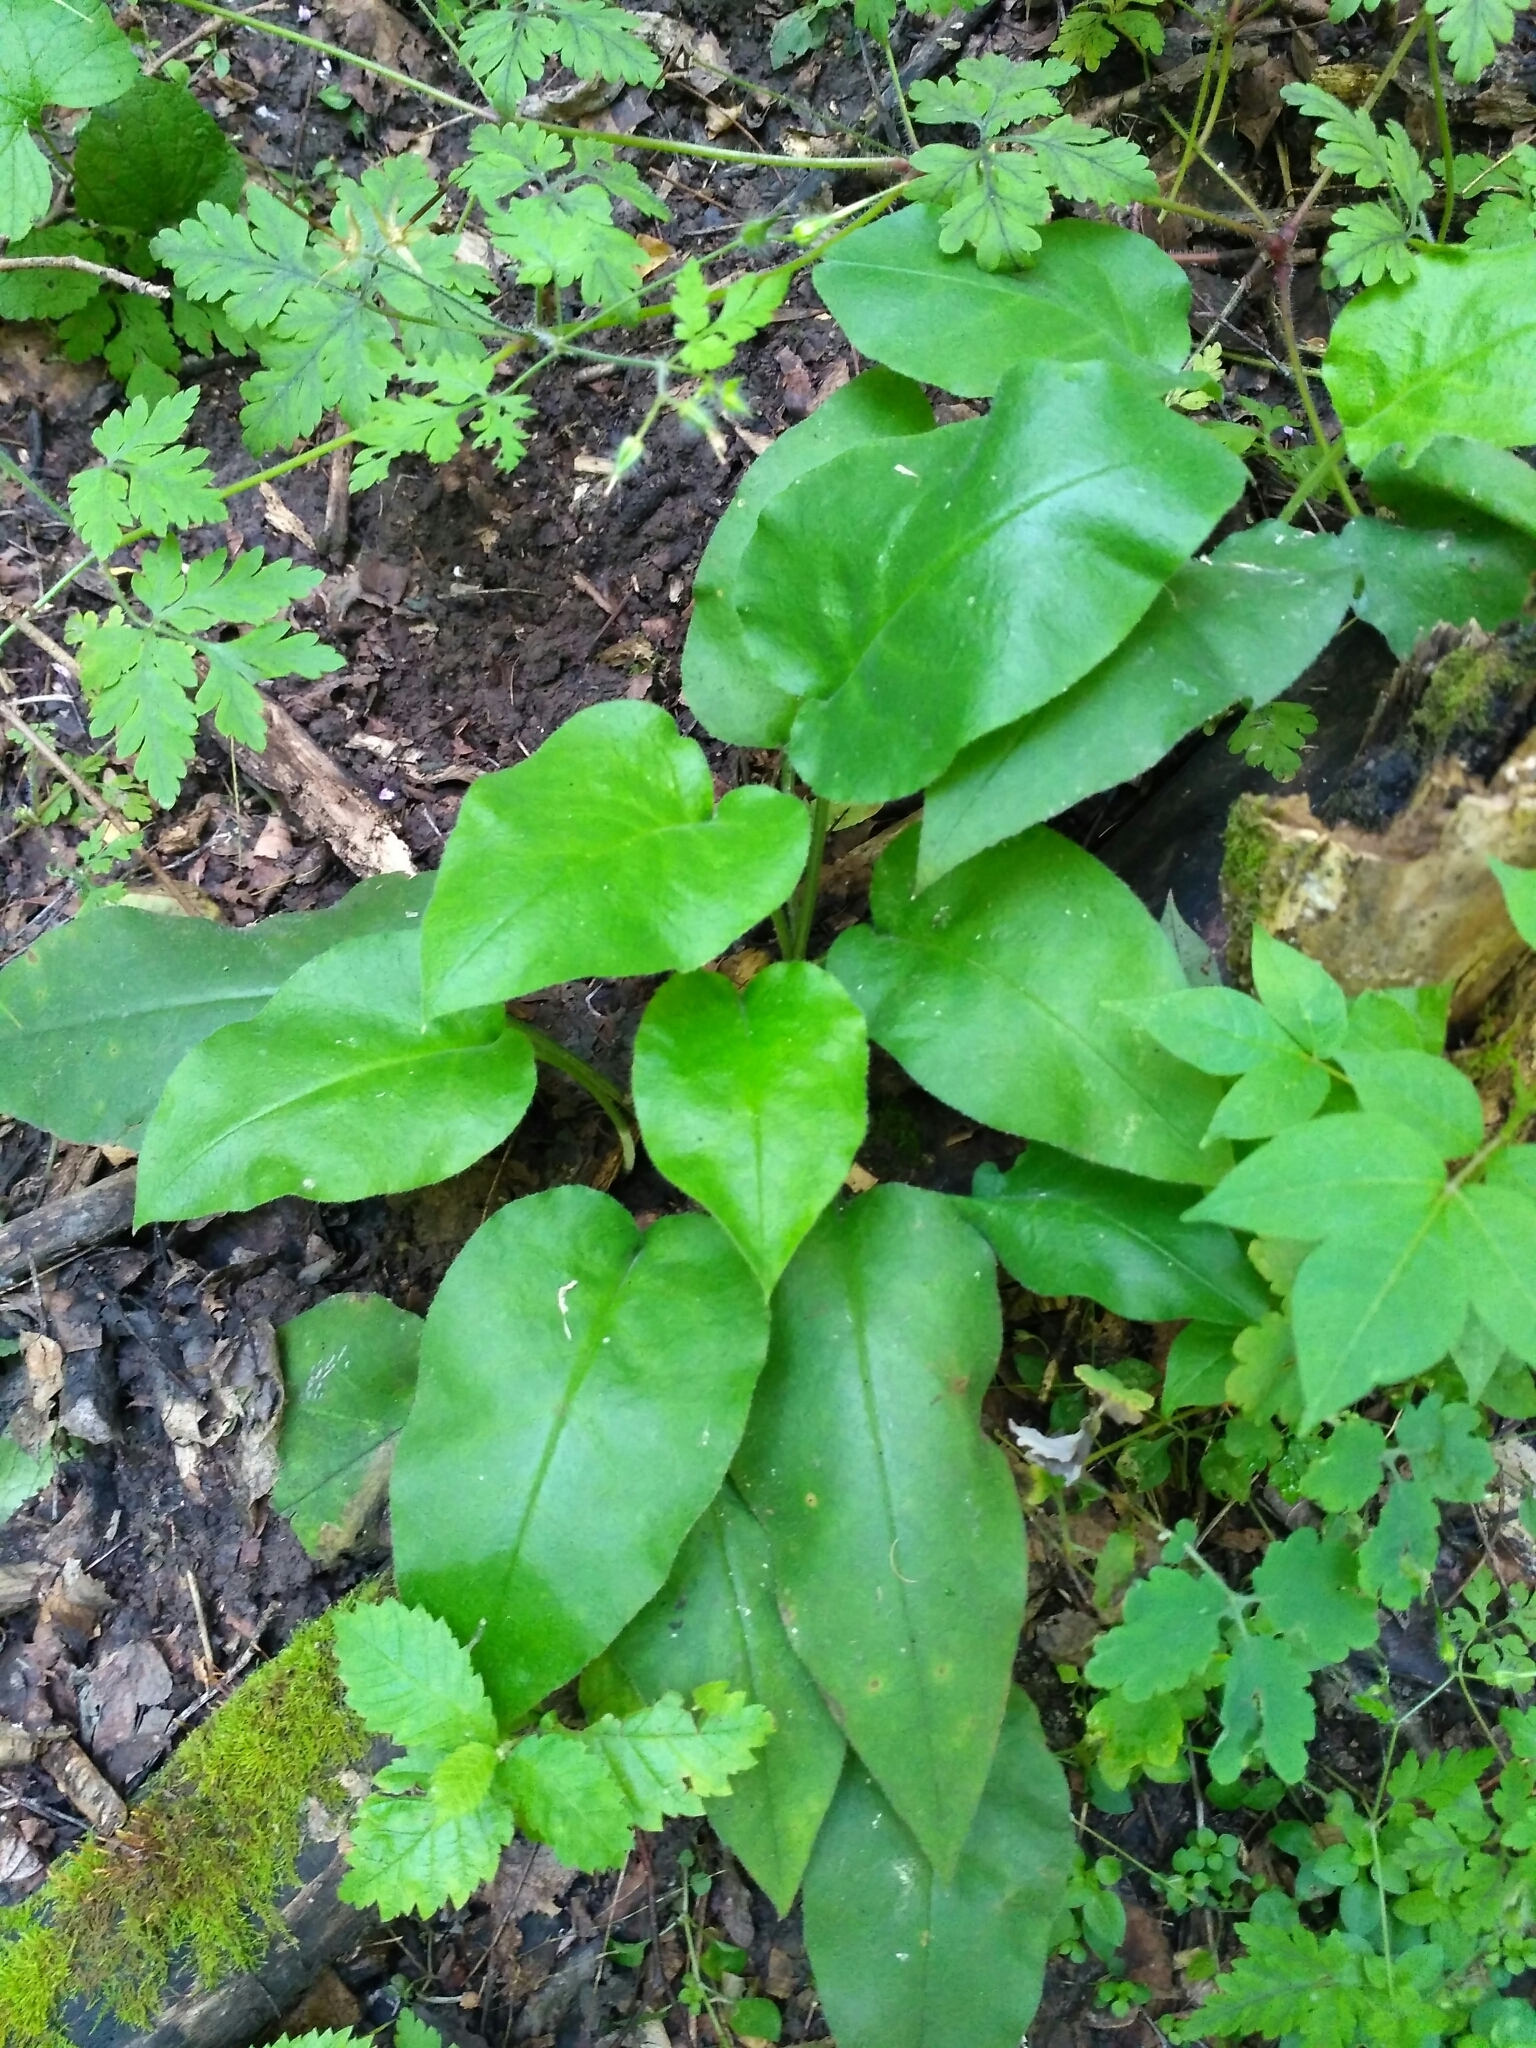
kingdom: Plantae
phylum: Tracheophyta
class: Magnoliopsida
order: Boraginales
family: Boraginaceae
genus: Pulmonaria
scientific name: Pulmonaria obscura
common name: Suffolk lungwort
